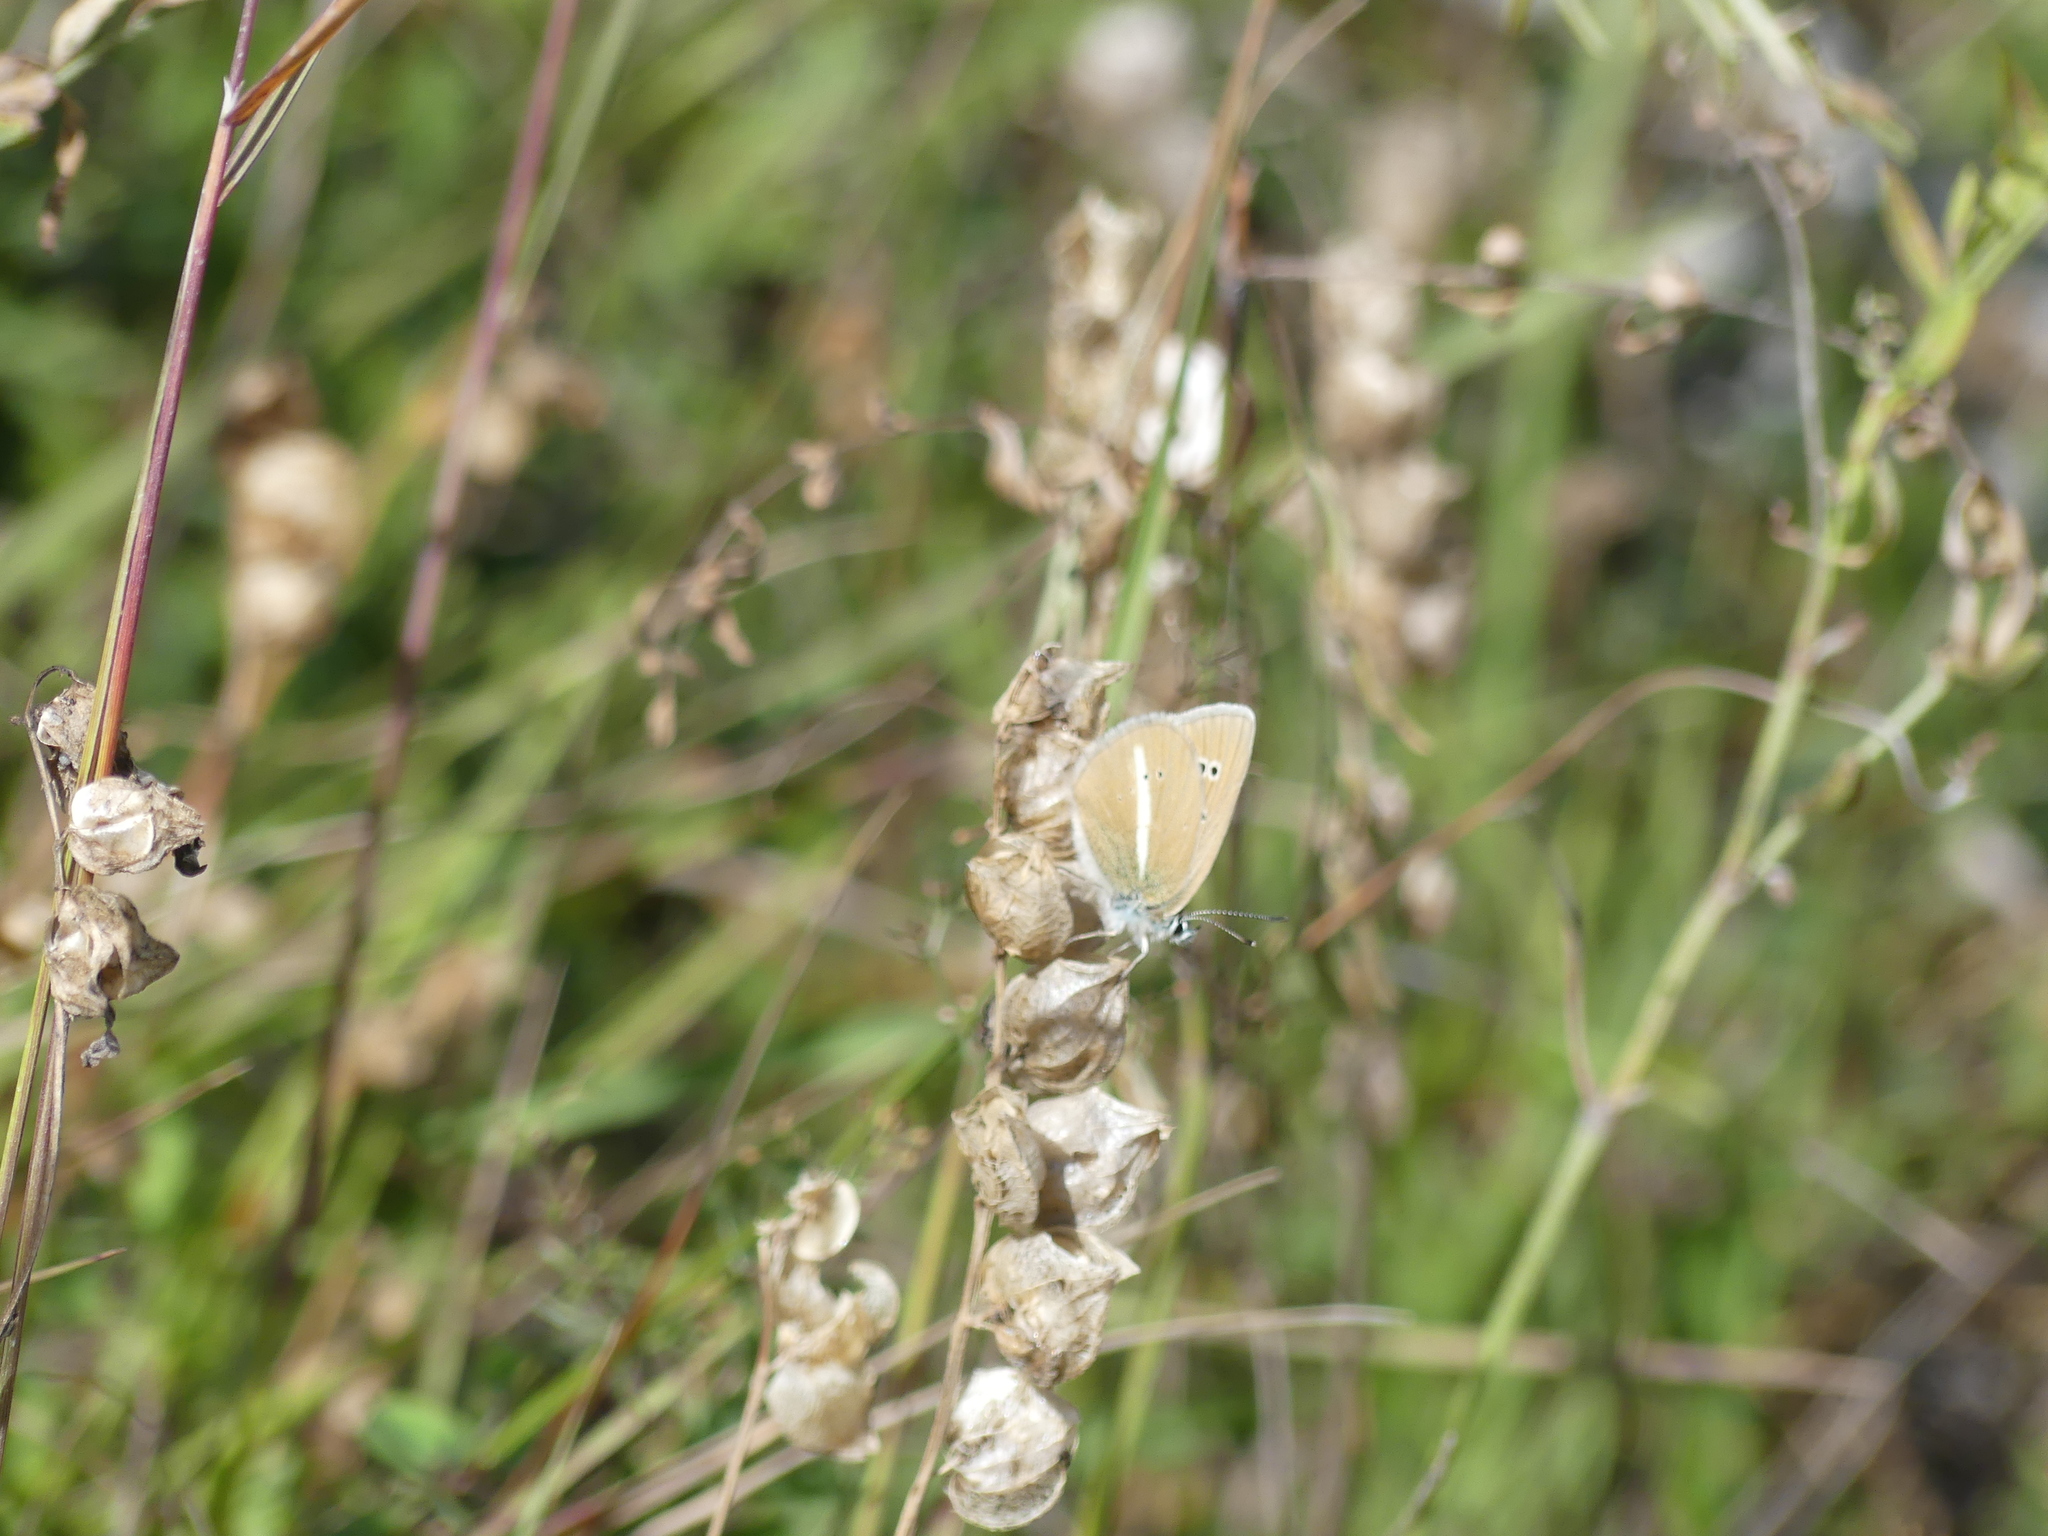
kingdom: Animalia
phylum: Arthropoda
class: Insecta
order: Lepidoptera
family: Lycaenidae
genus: Agrodiaetus
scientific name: Agrodiaetus damon
